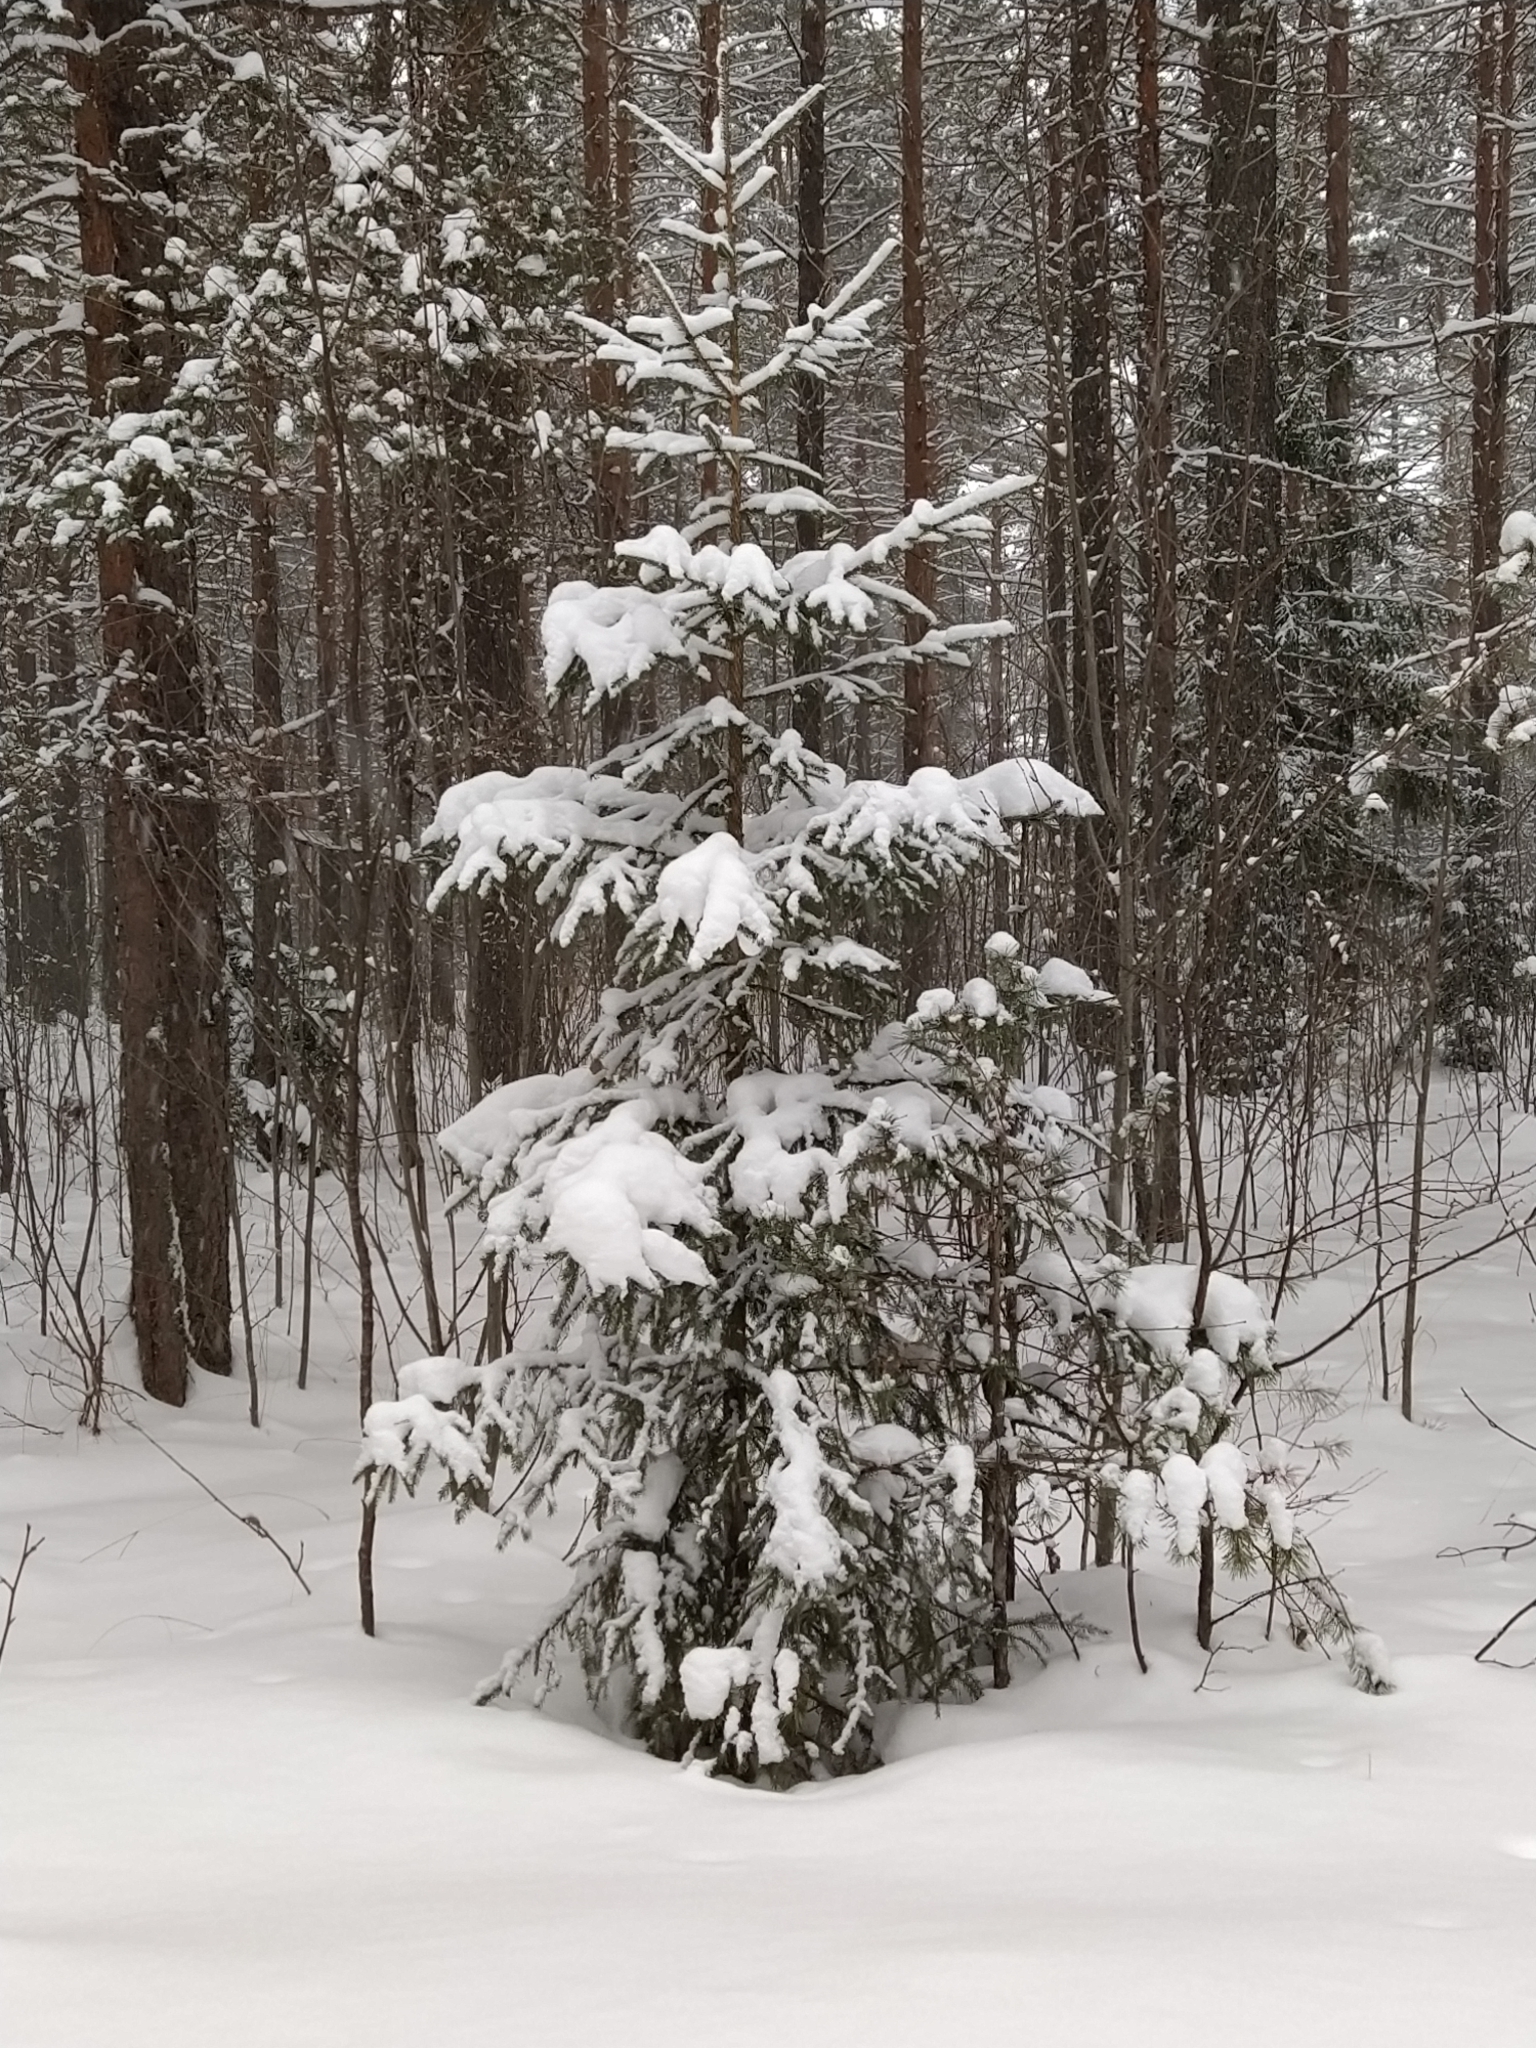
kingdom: Plantae
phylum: Tracheophyta
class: Pinopsida
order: Pinales
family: Pinaceae
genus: Picea
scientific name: Picea abies
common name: Norway spruce
